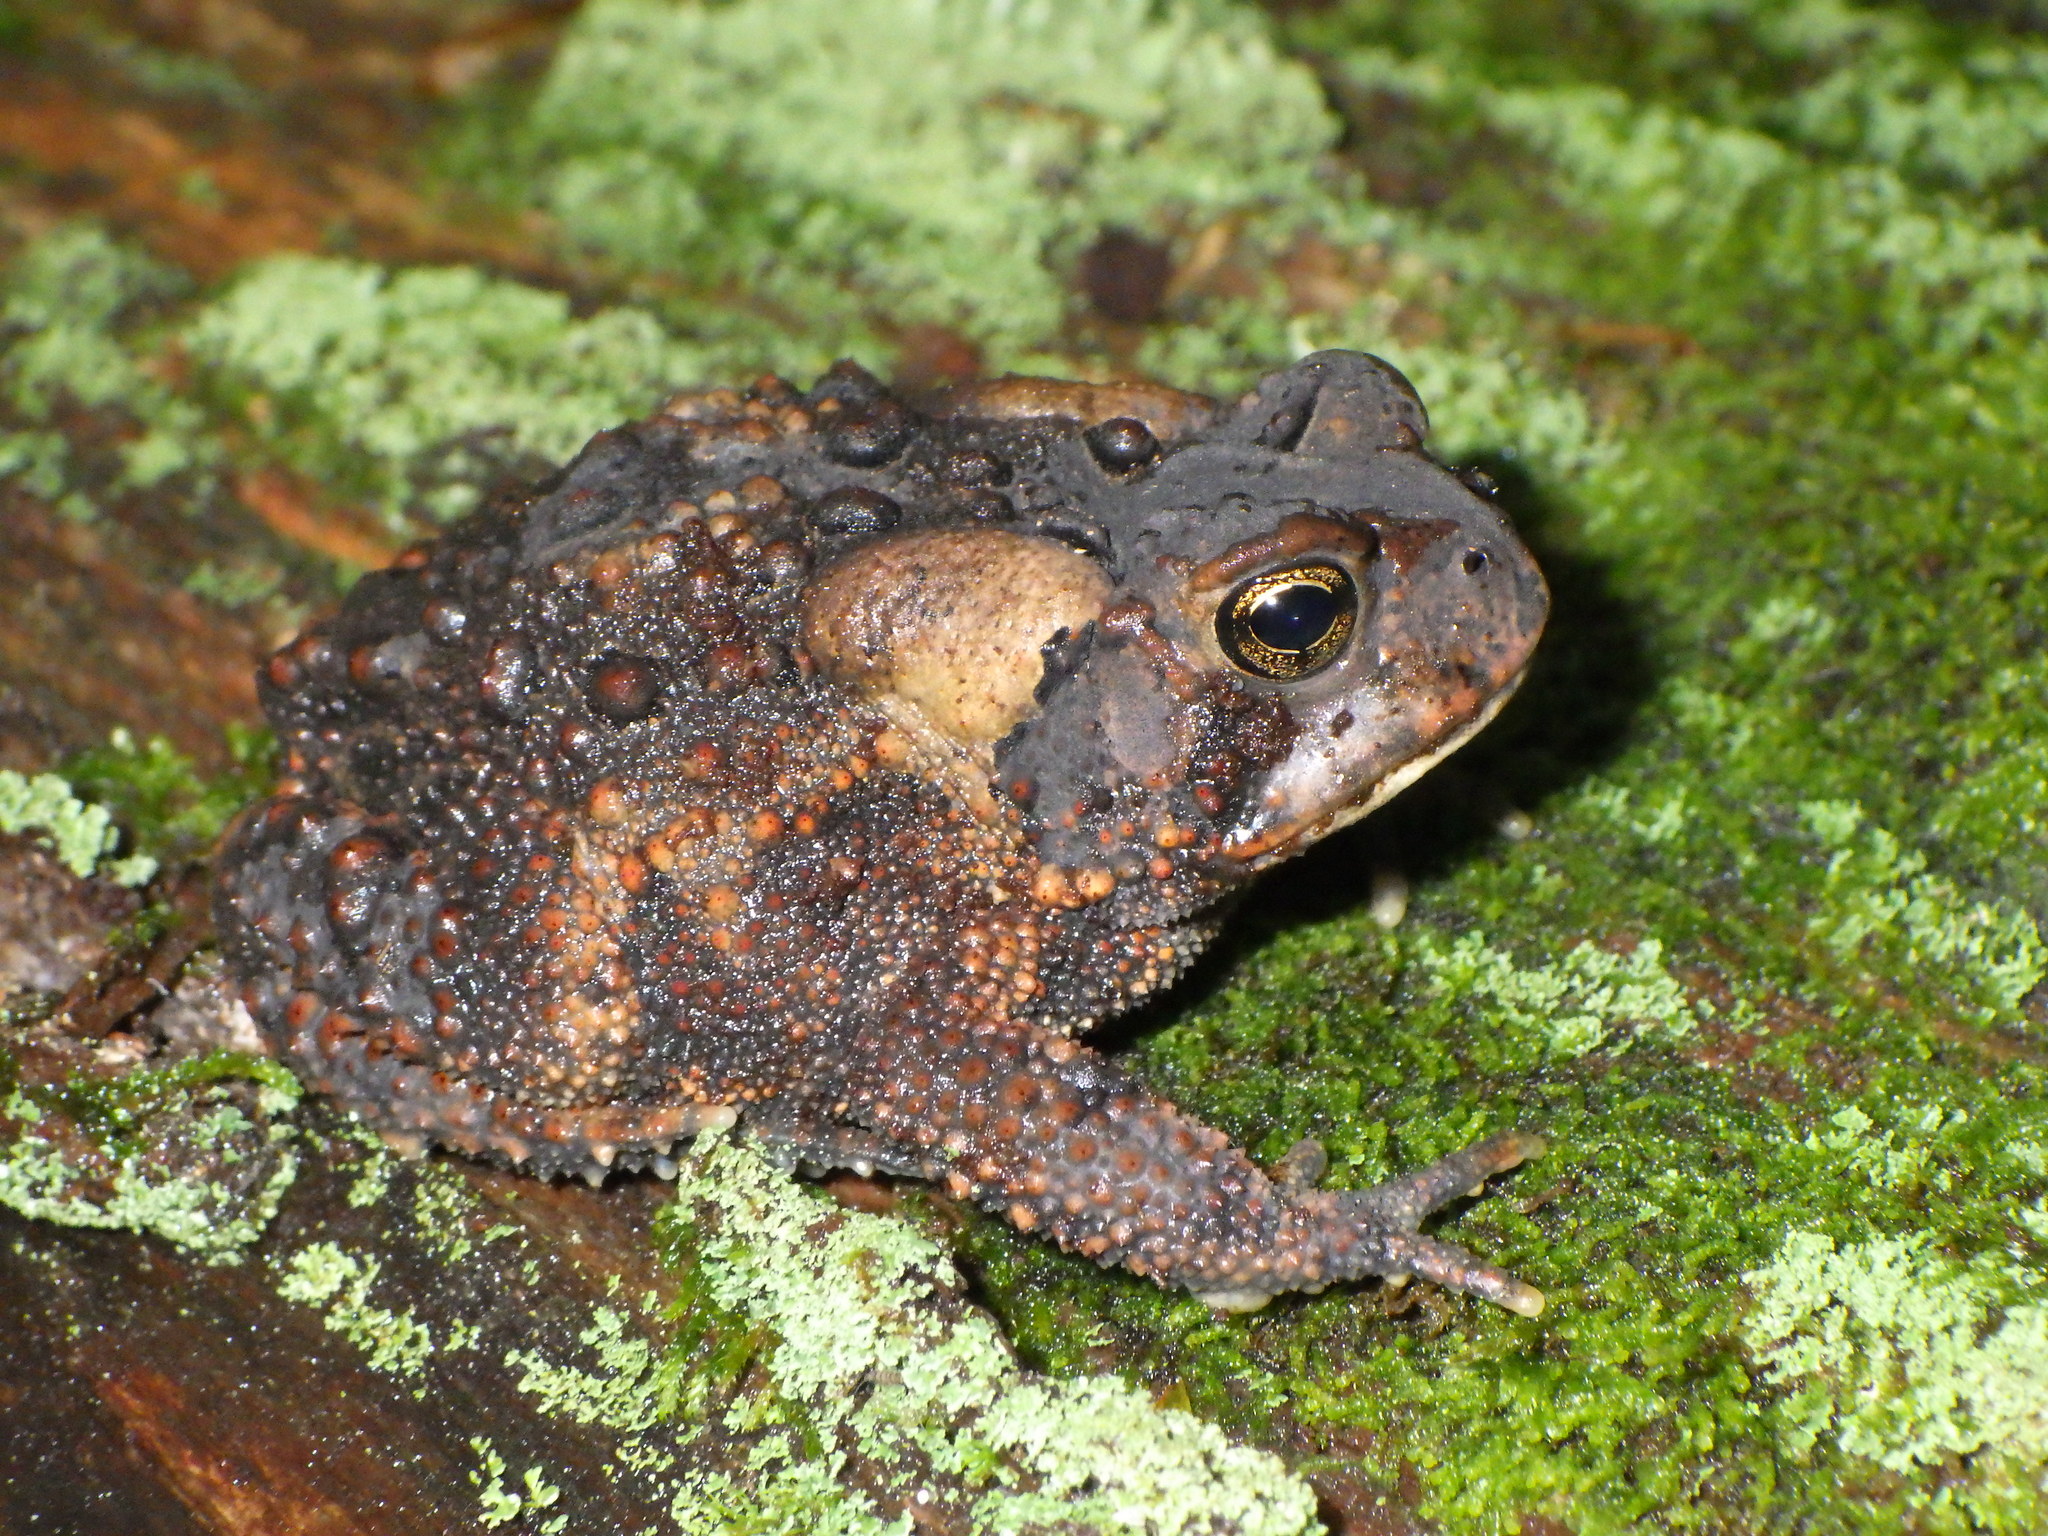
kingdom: Animalia
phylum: Chordata
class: Amphibia
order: Anura
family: Bufonidae
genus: Anaxyrus
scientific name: Anaxyrus americanus
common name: American toad
